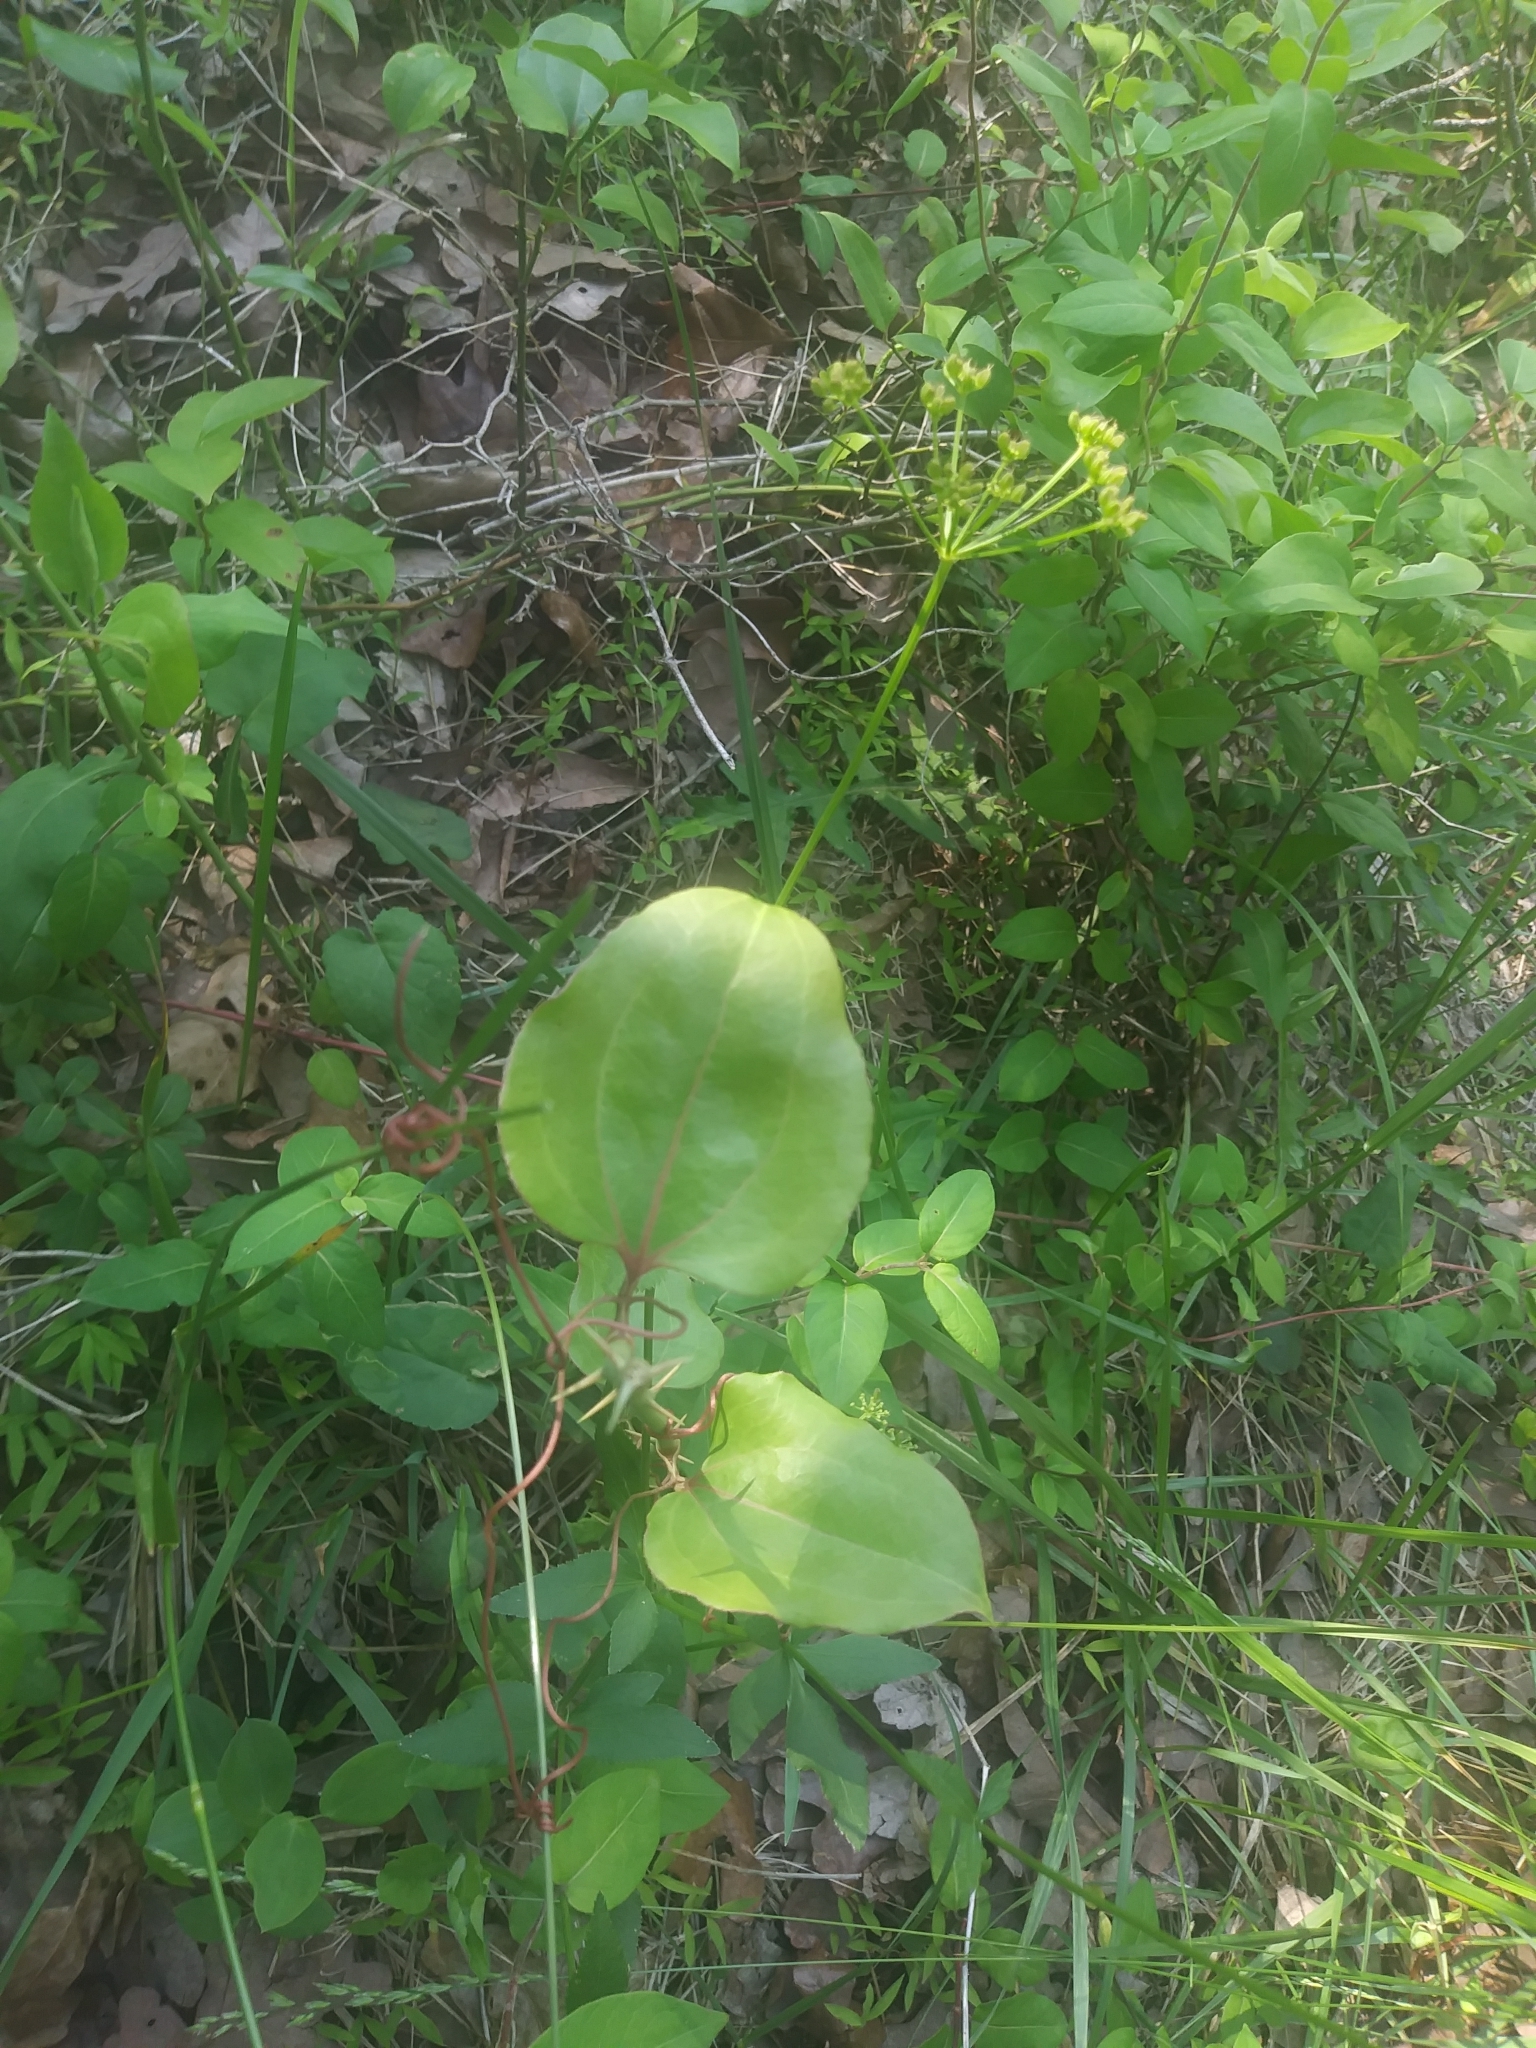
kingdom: Plantae
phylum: Tracheophyta
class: Magnoliopsida
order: Apiales
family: Apiaceae
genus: Zizia
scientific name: Zizia aptera
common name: Heart-leaved alexanders
